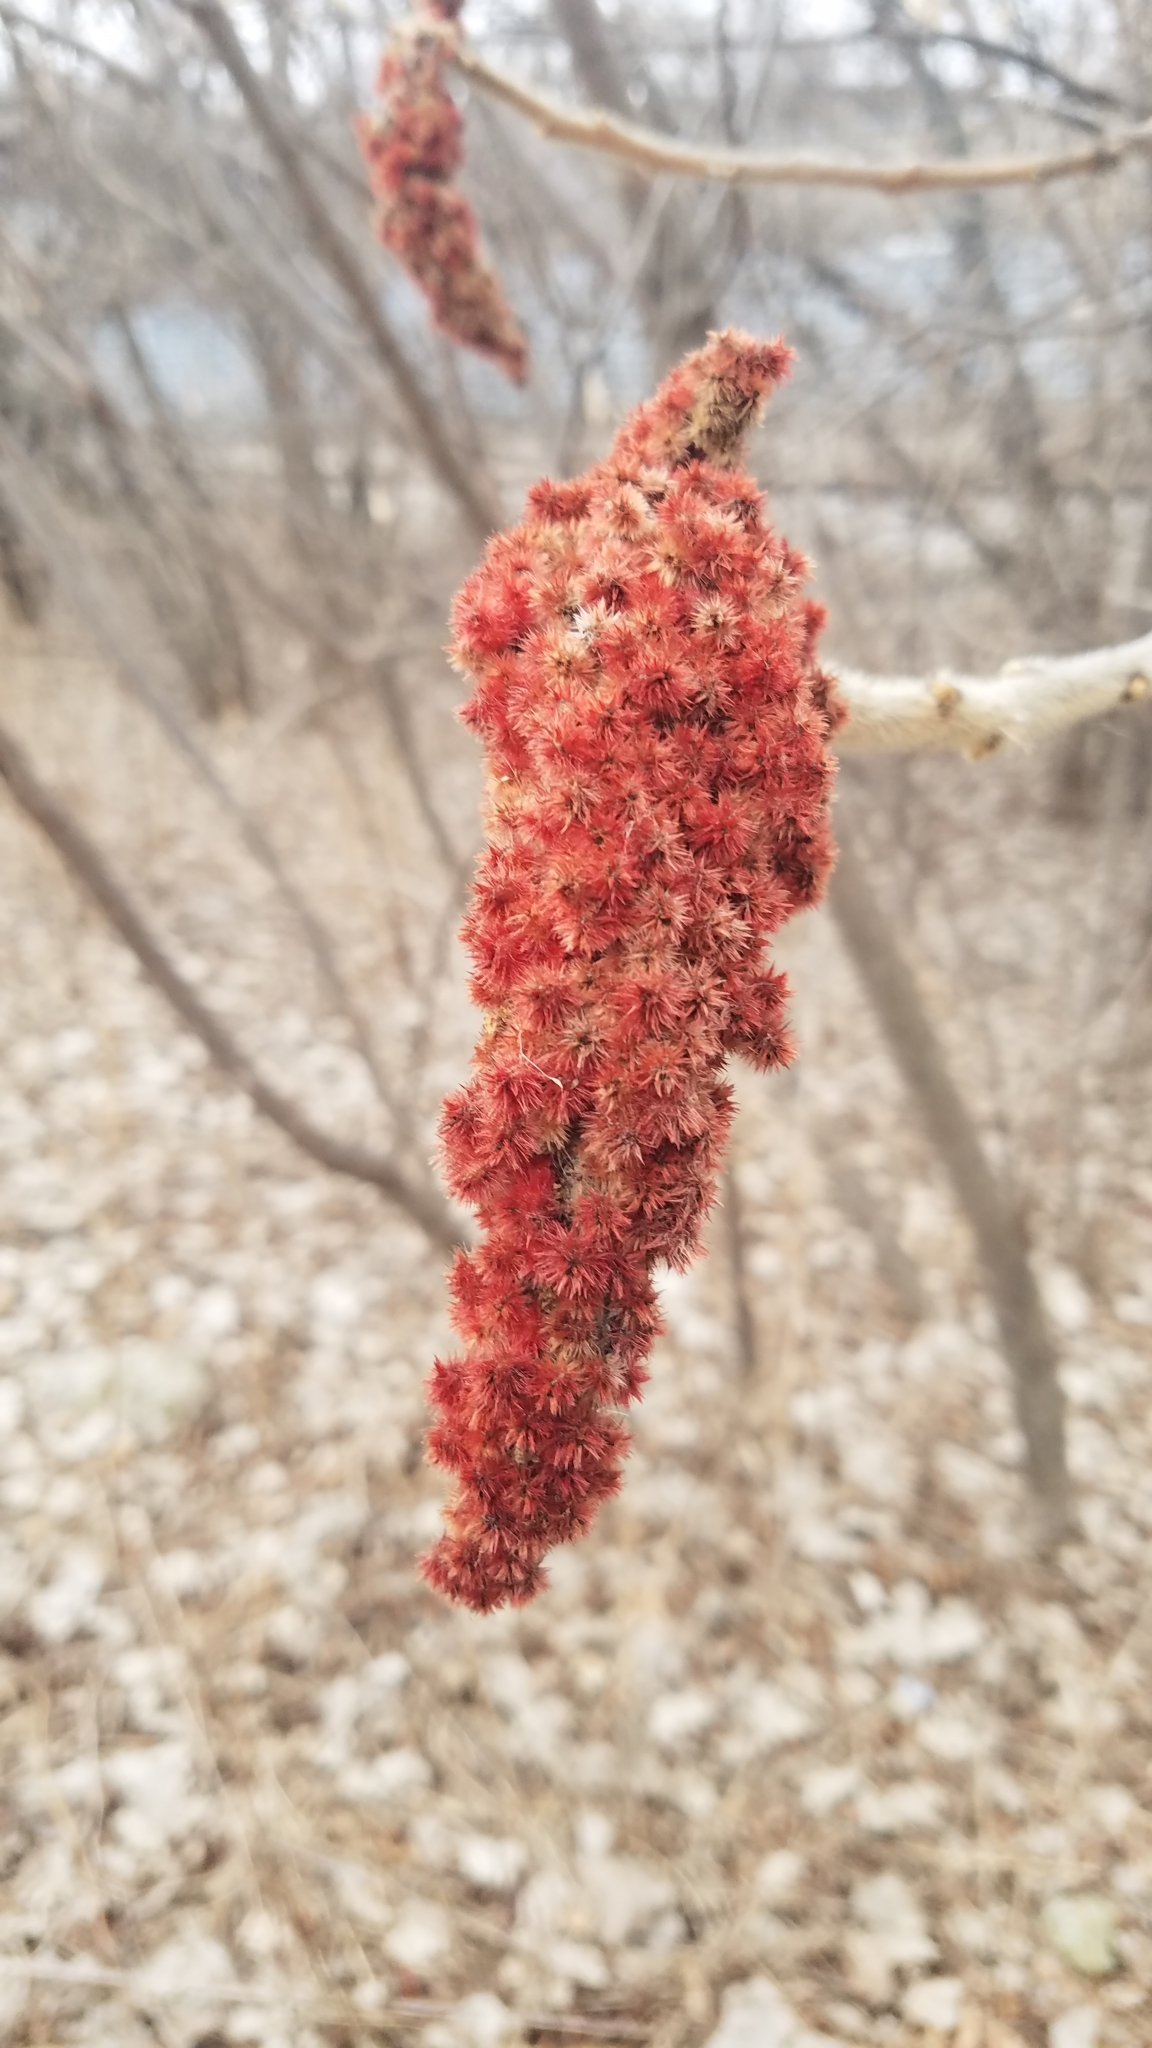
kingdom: Plantae
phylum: Tracheophyta
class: Magnoliopsida
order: Sapindales
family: Anacardiaceae
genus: Rhus
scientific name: Rhus typhina
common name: Staghorn sumac
